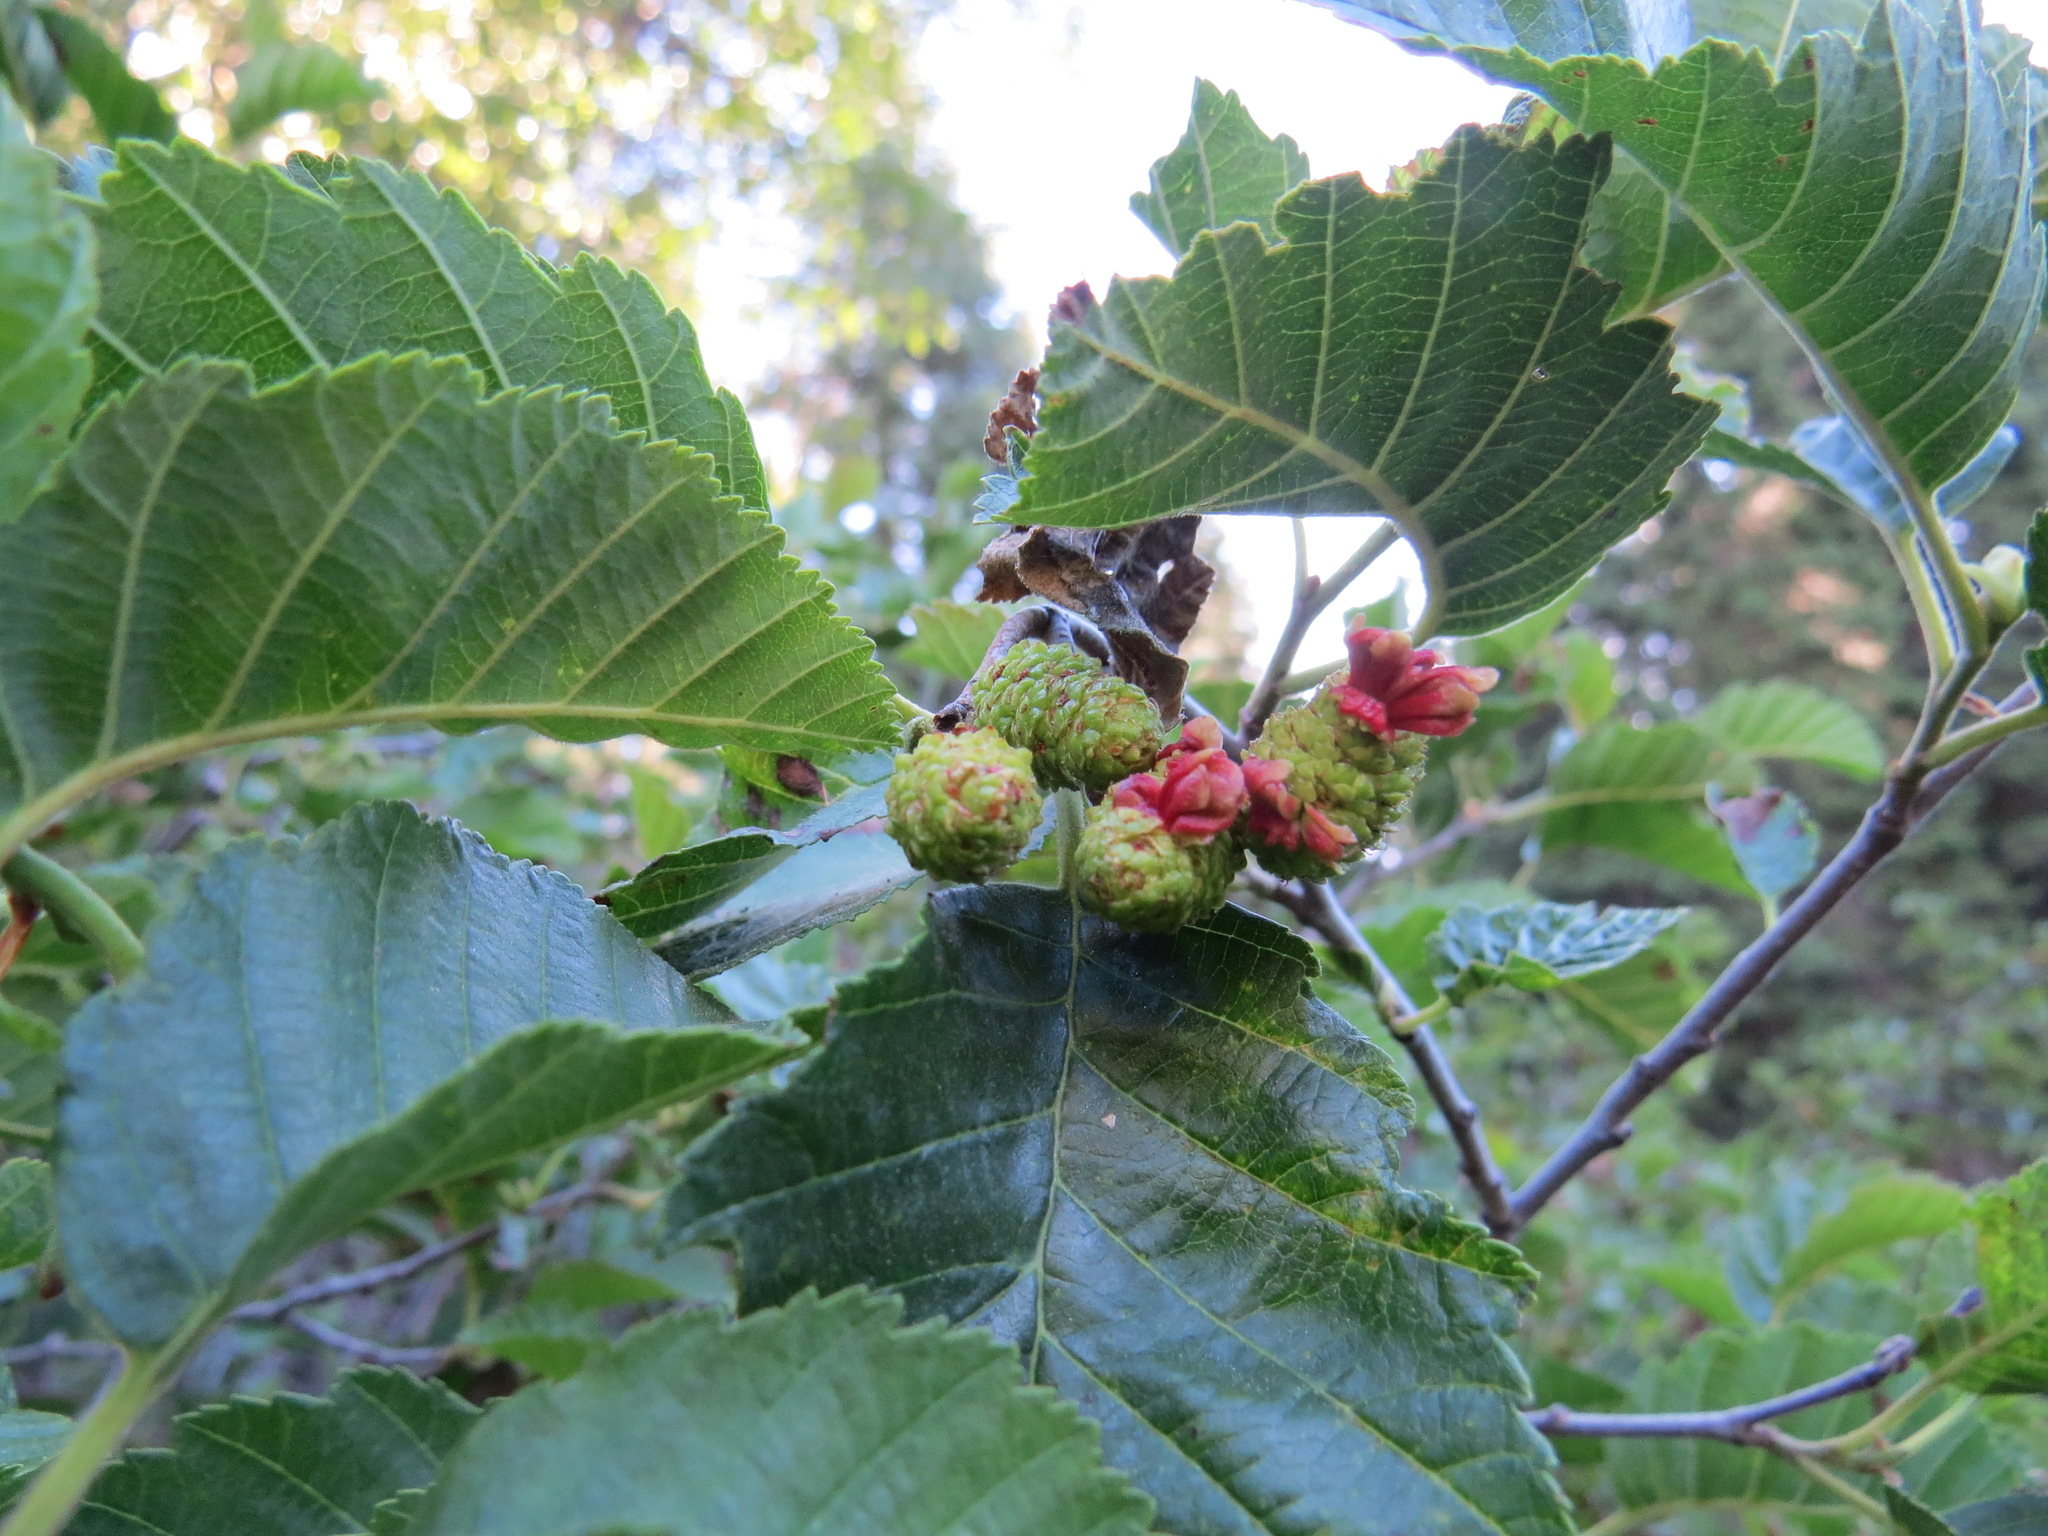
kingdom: Fungi
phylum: Ascomycota
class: Taphrinomycetes
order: Taphrinales
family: Taphrinaceae
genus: Taphrina
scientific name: Taphrina occidentalis
